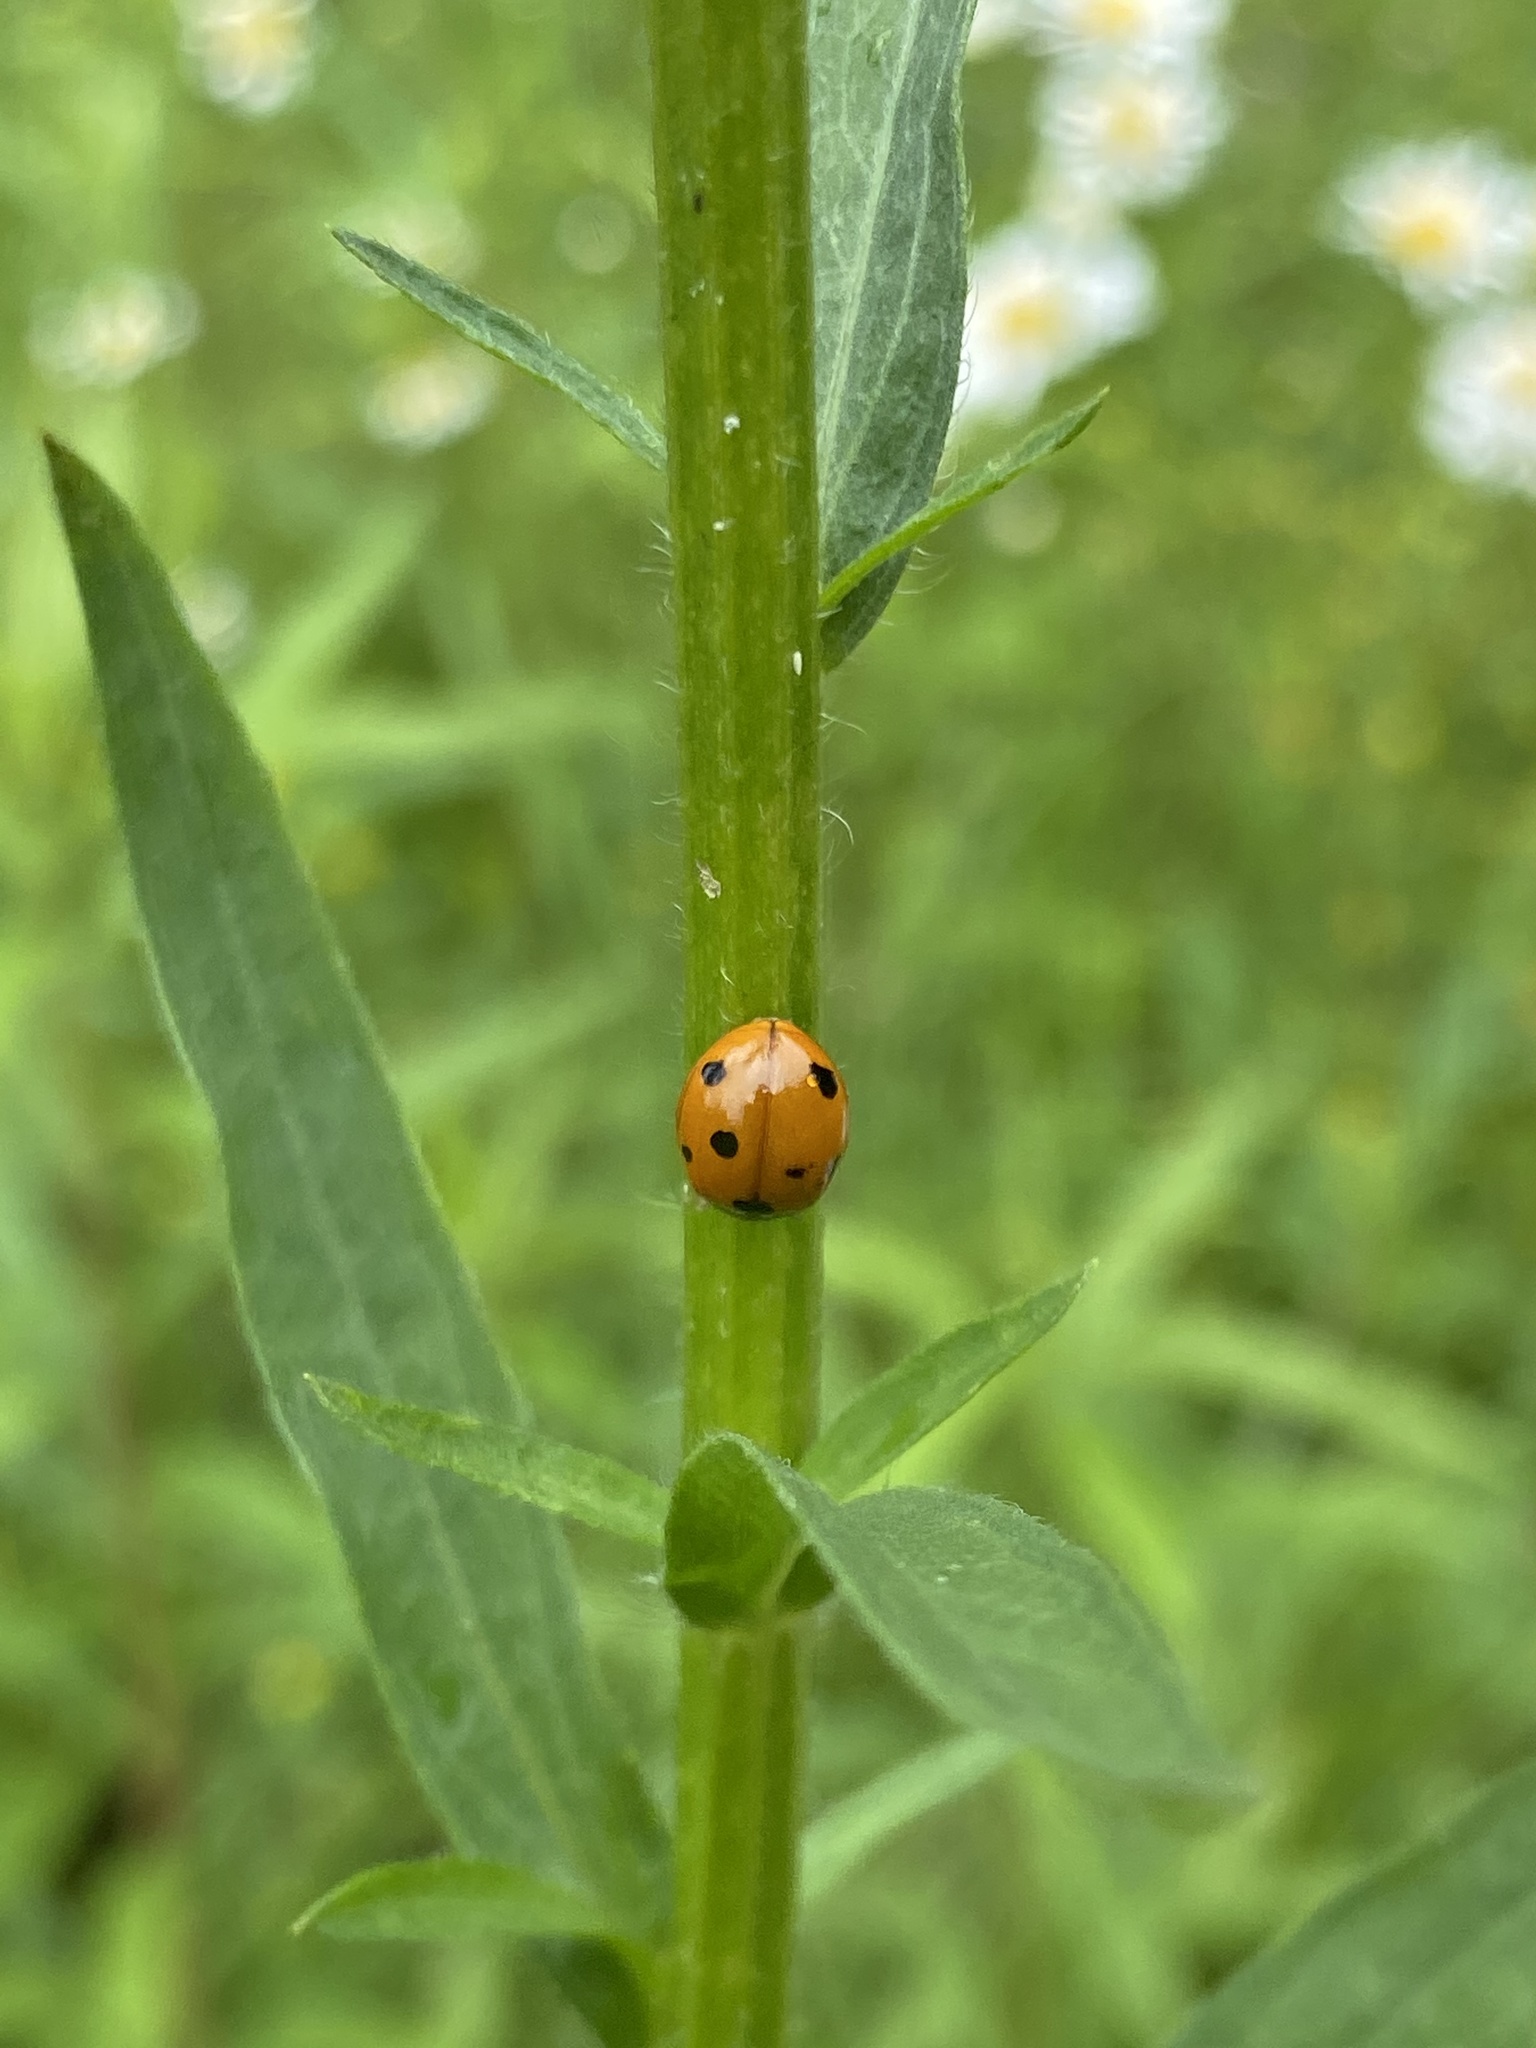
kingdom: Animalia
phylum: Arthropoda
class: Insecta
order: Coleoptera
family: Coccinellidae
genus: Coccinella
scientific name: Coccinella septempunctata
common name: Sevenspotted lady beetle
